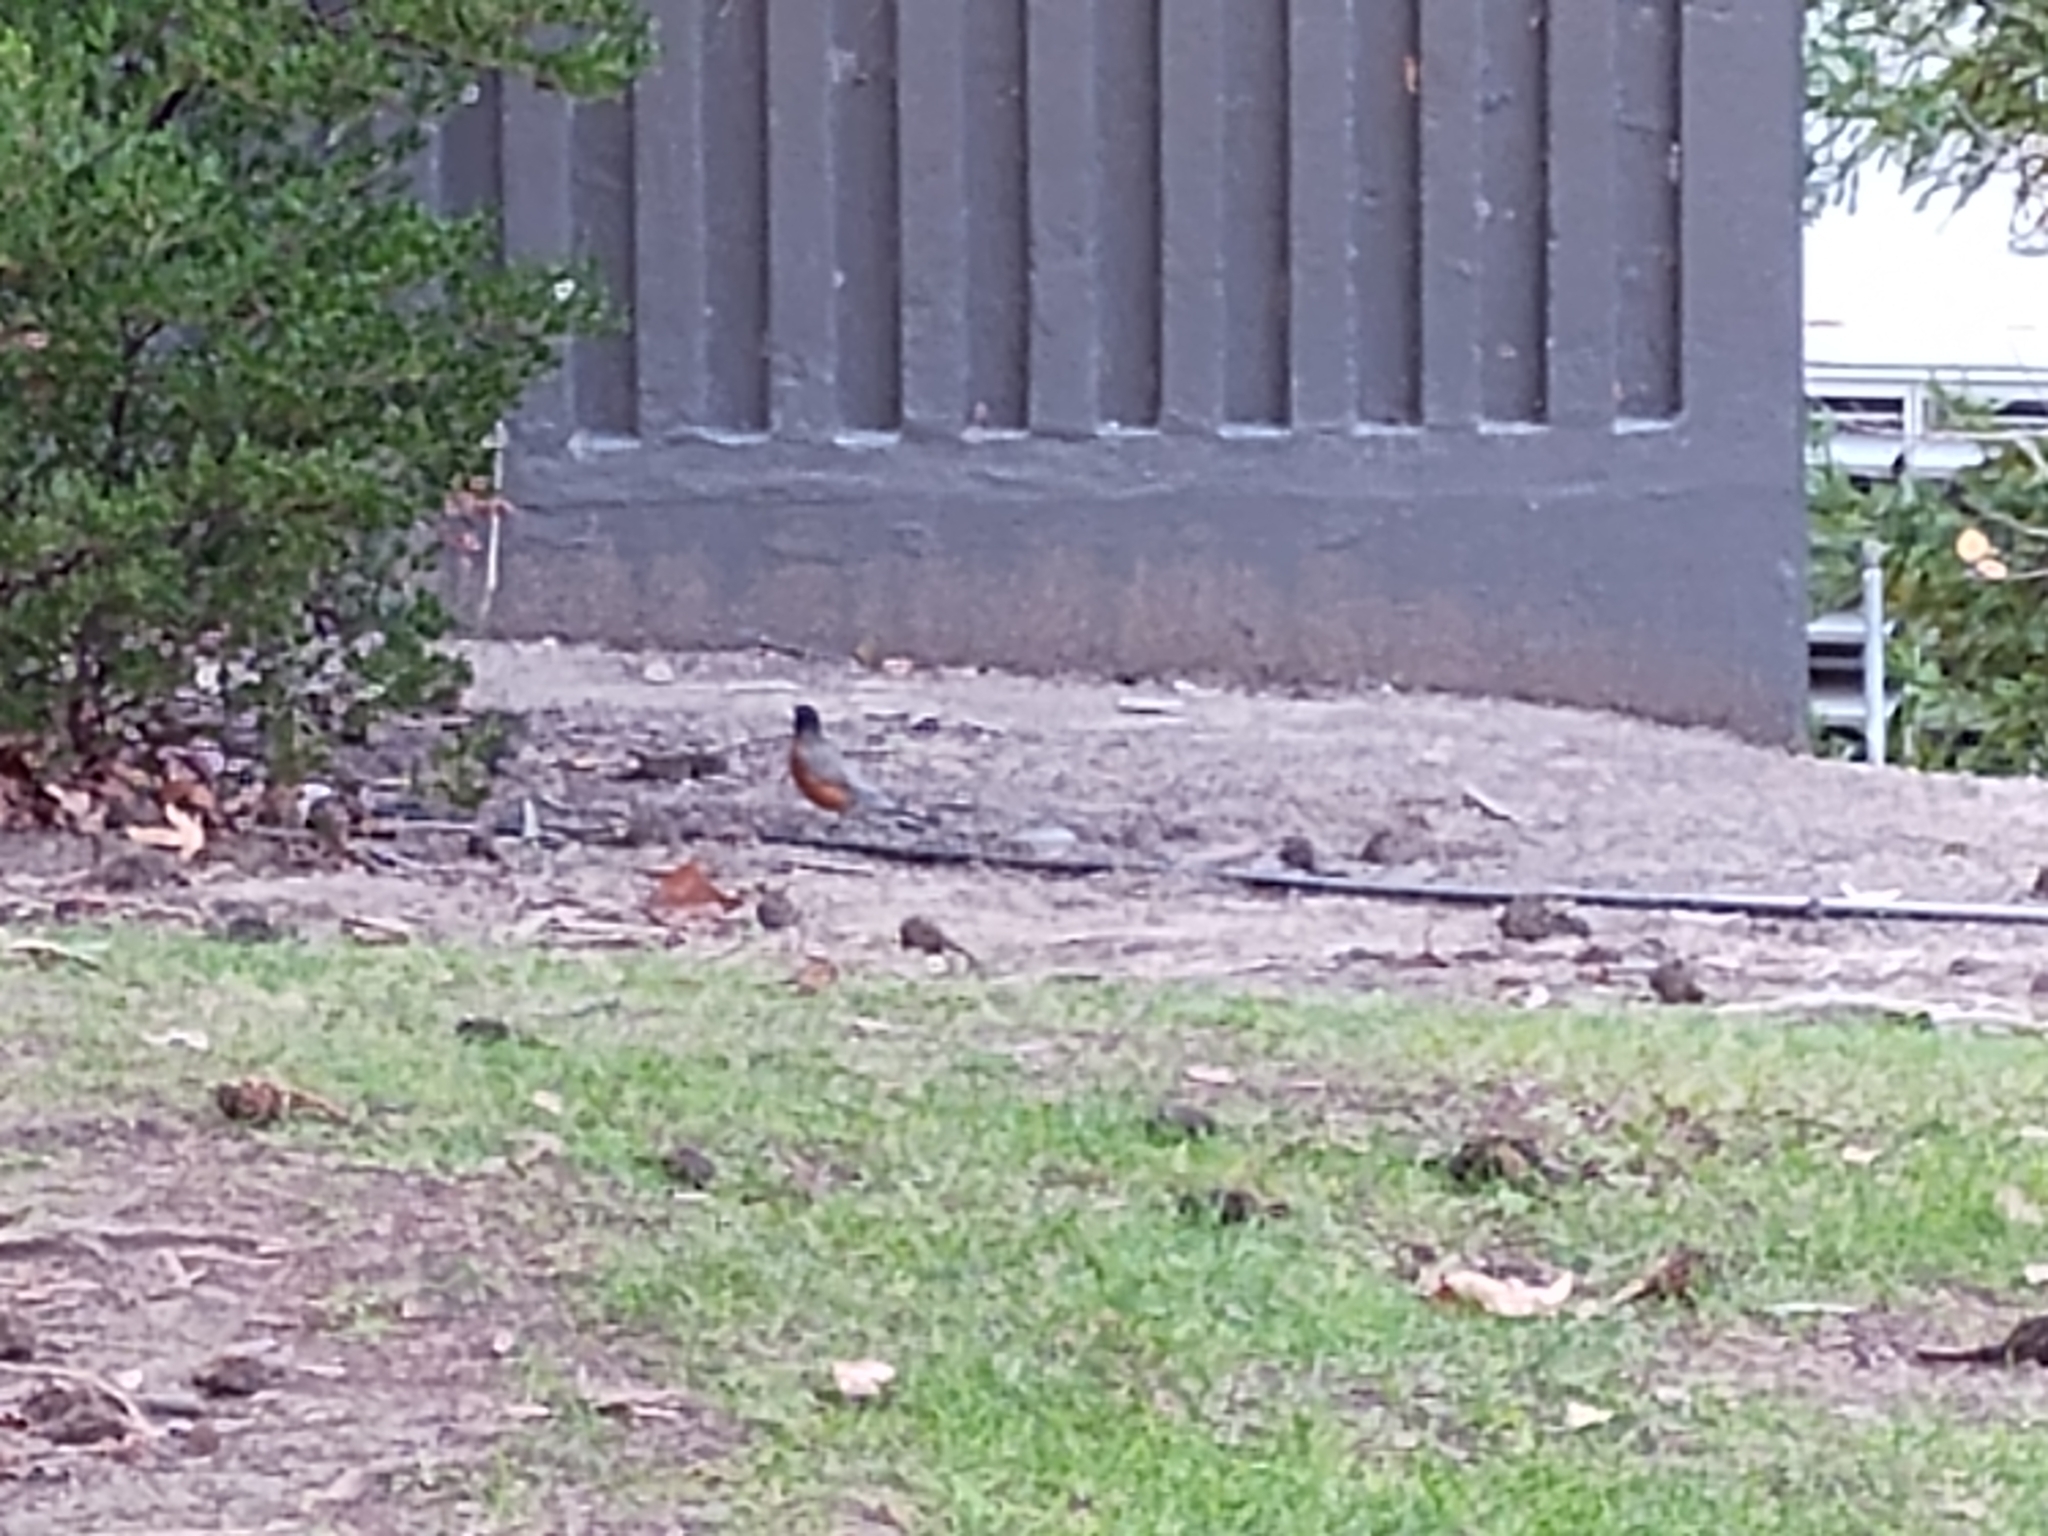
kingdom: Animalia
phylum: Chordata
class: Aves
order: Passeriformes
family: Turdidae
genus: Turdus
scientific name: Turdus migratorius
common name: American robin
